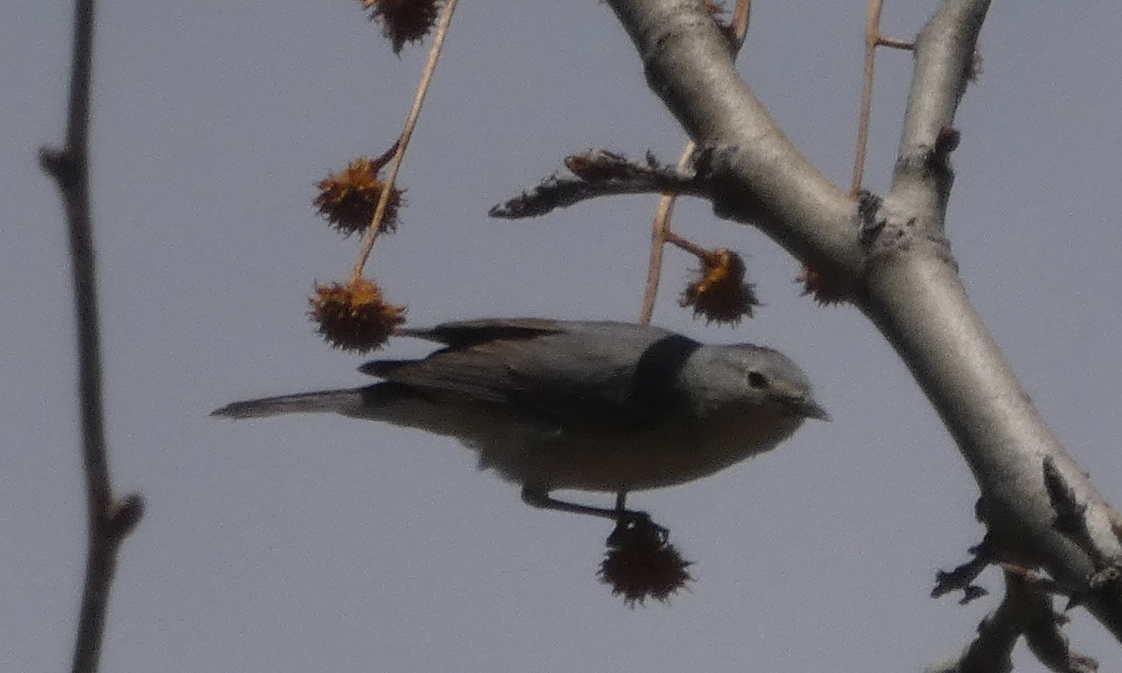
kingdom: Animalia
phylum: Chordata
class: Aves
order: Passeriformes
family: Parulidae
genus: Leiothlypis
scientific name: Leiothlypis luciae
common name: Lucy's warbler
